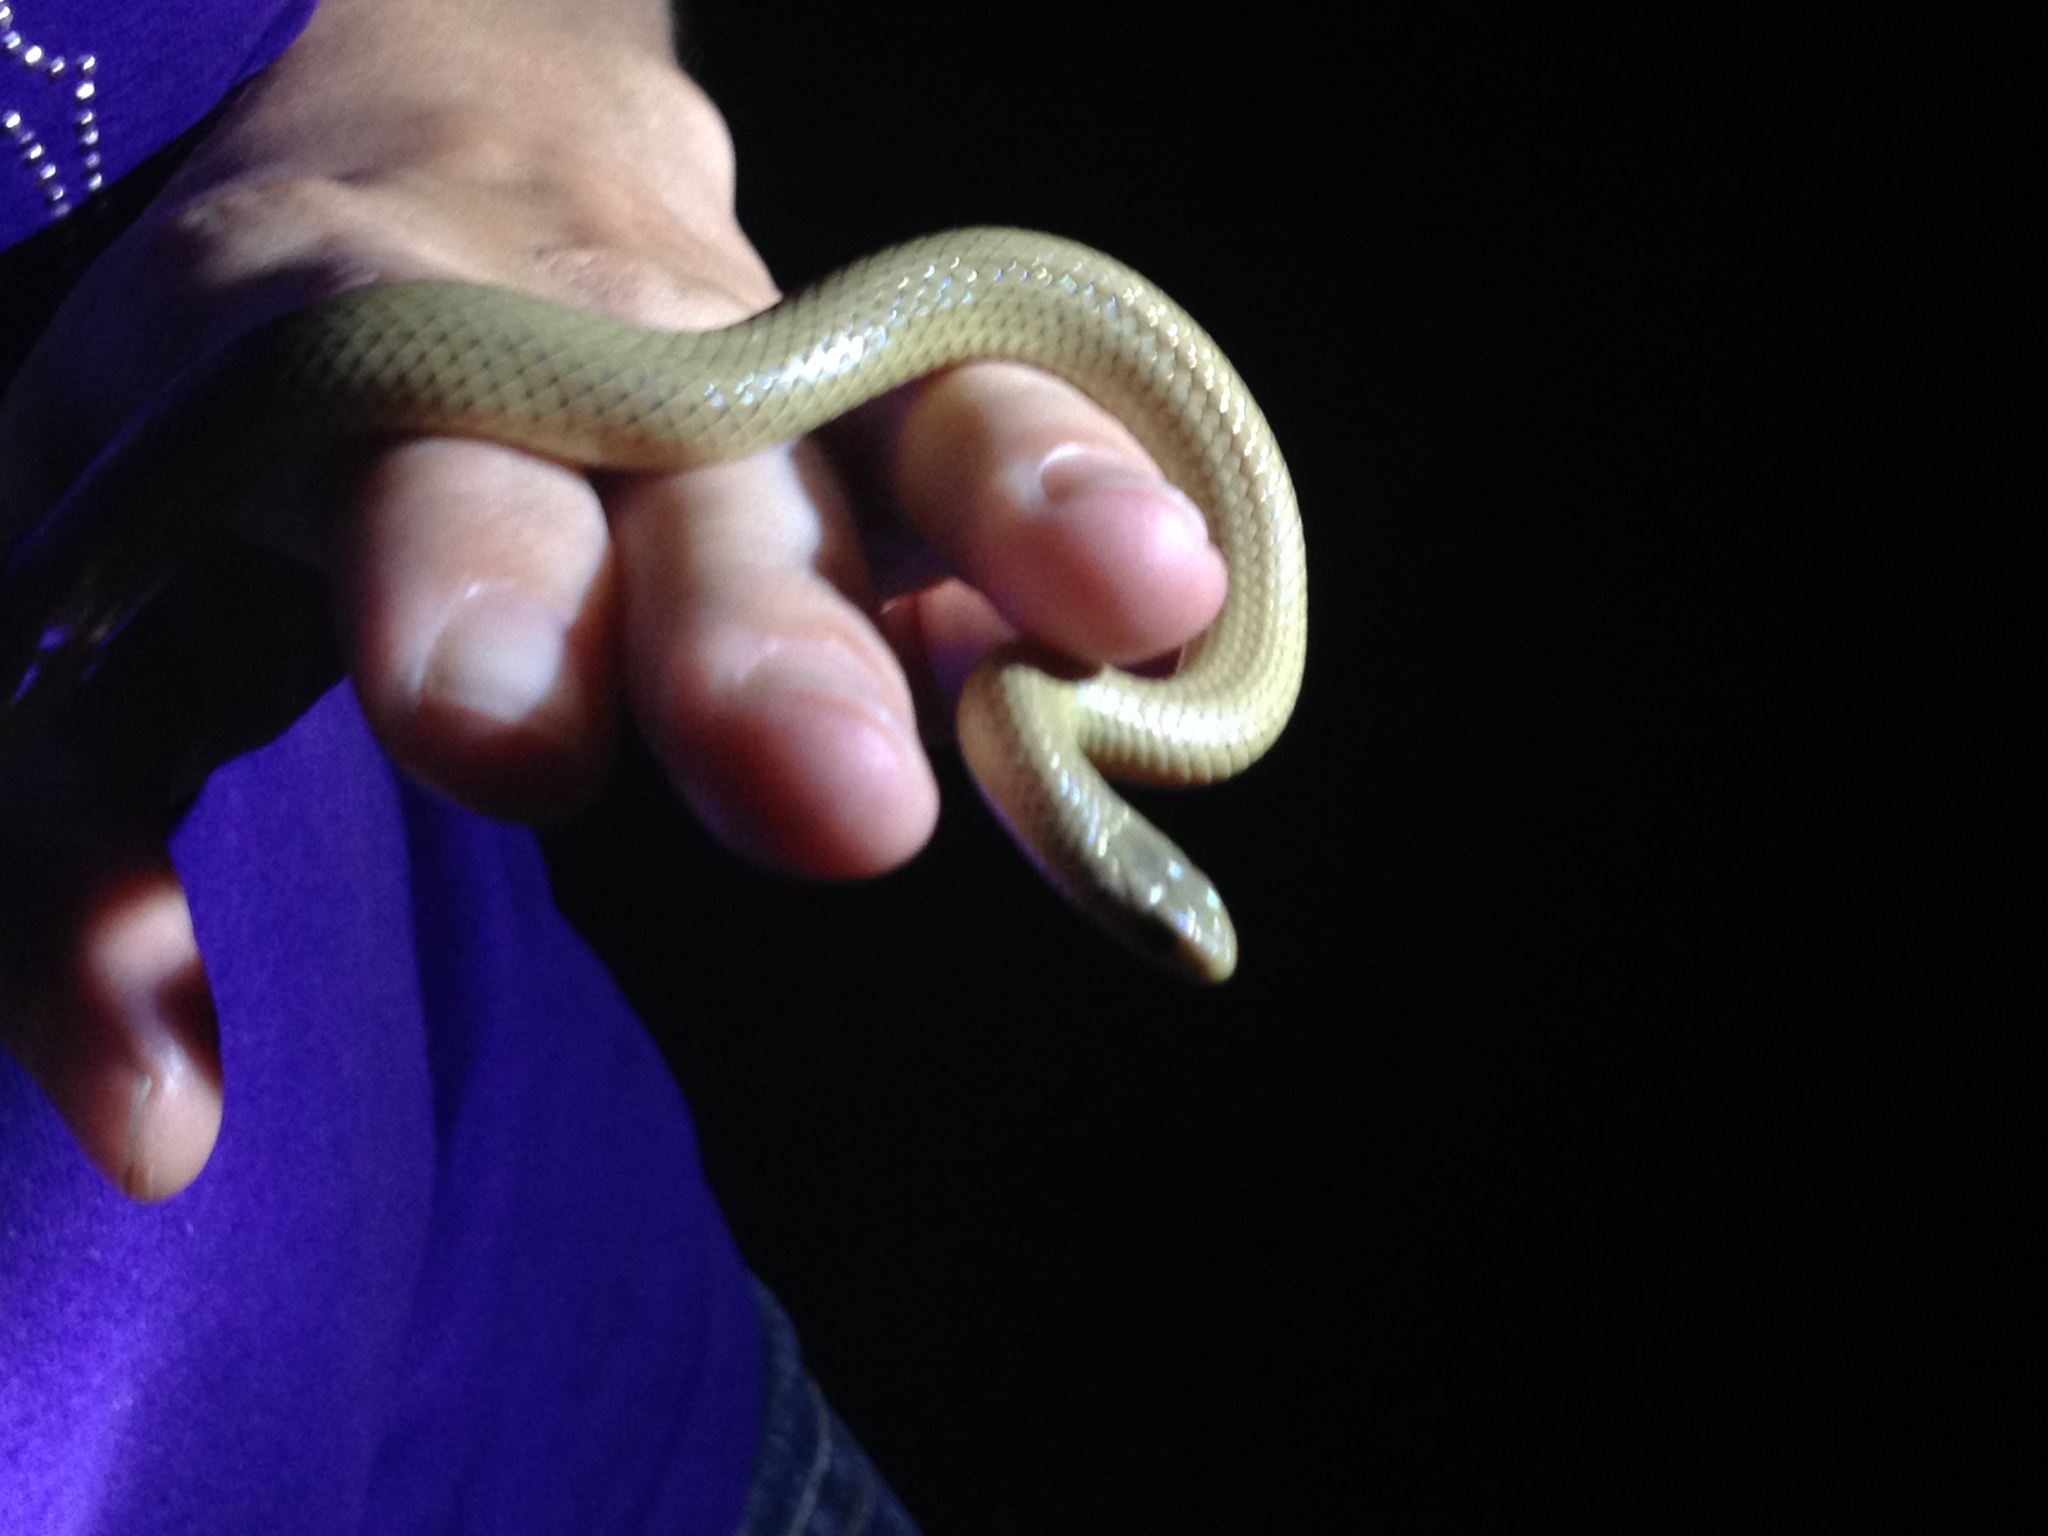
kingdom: Animalia
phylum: Chordata
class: Squamata
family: Colubridae
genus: Sonora
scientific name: Sonora episcopa
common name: Ground snake
